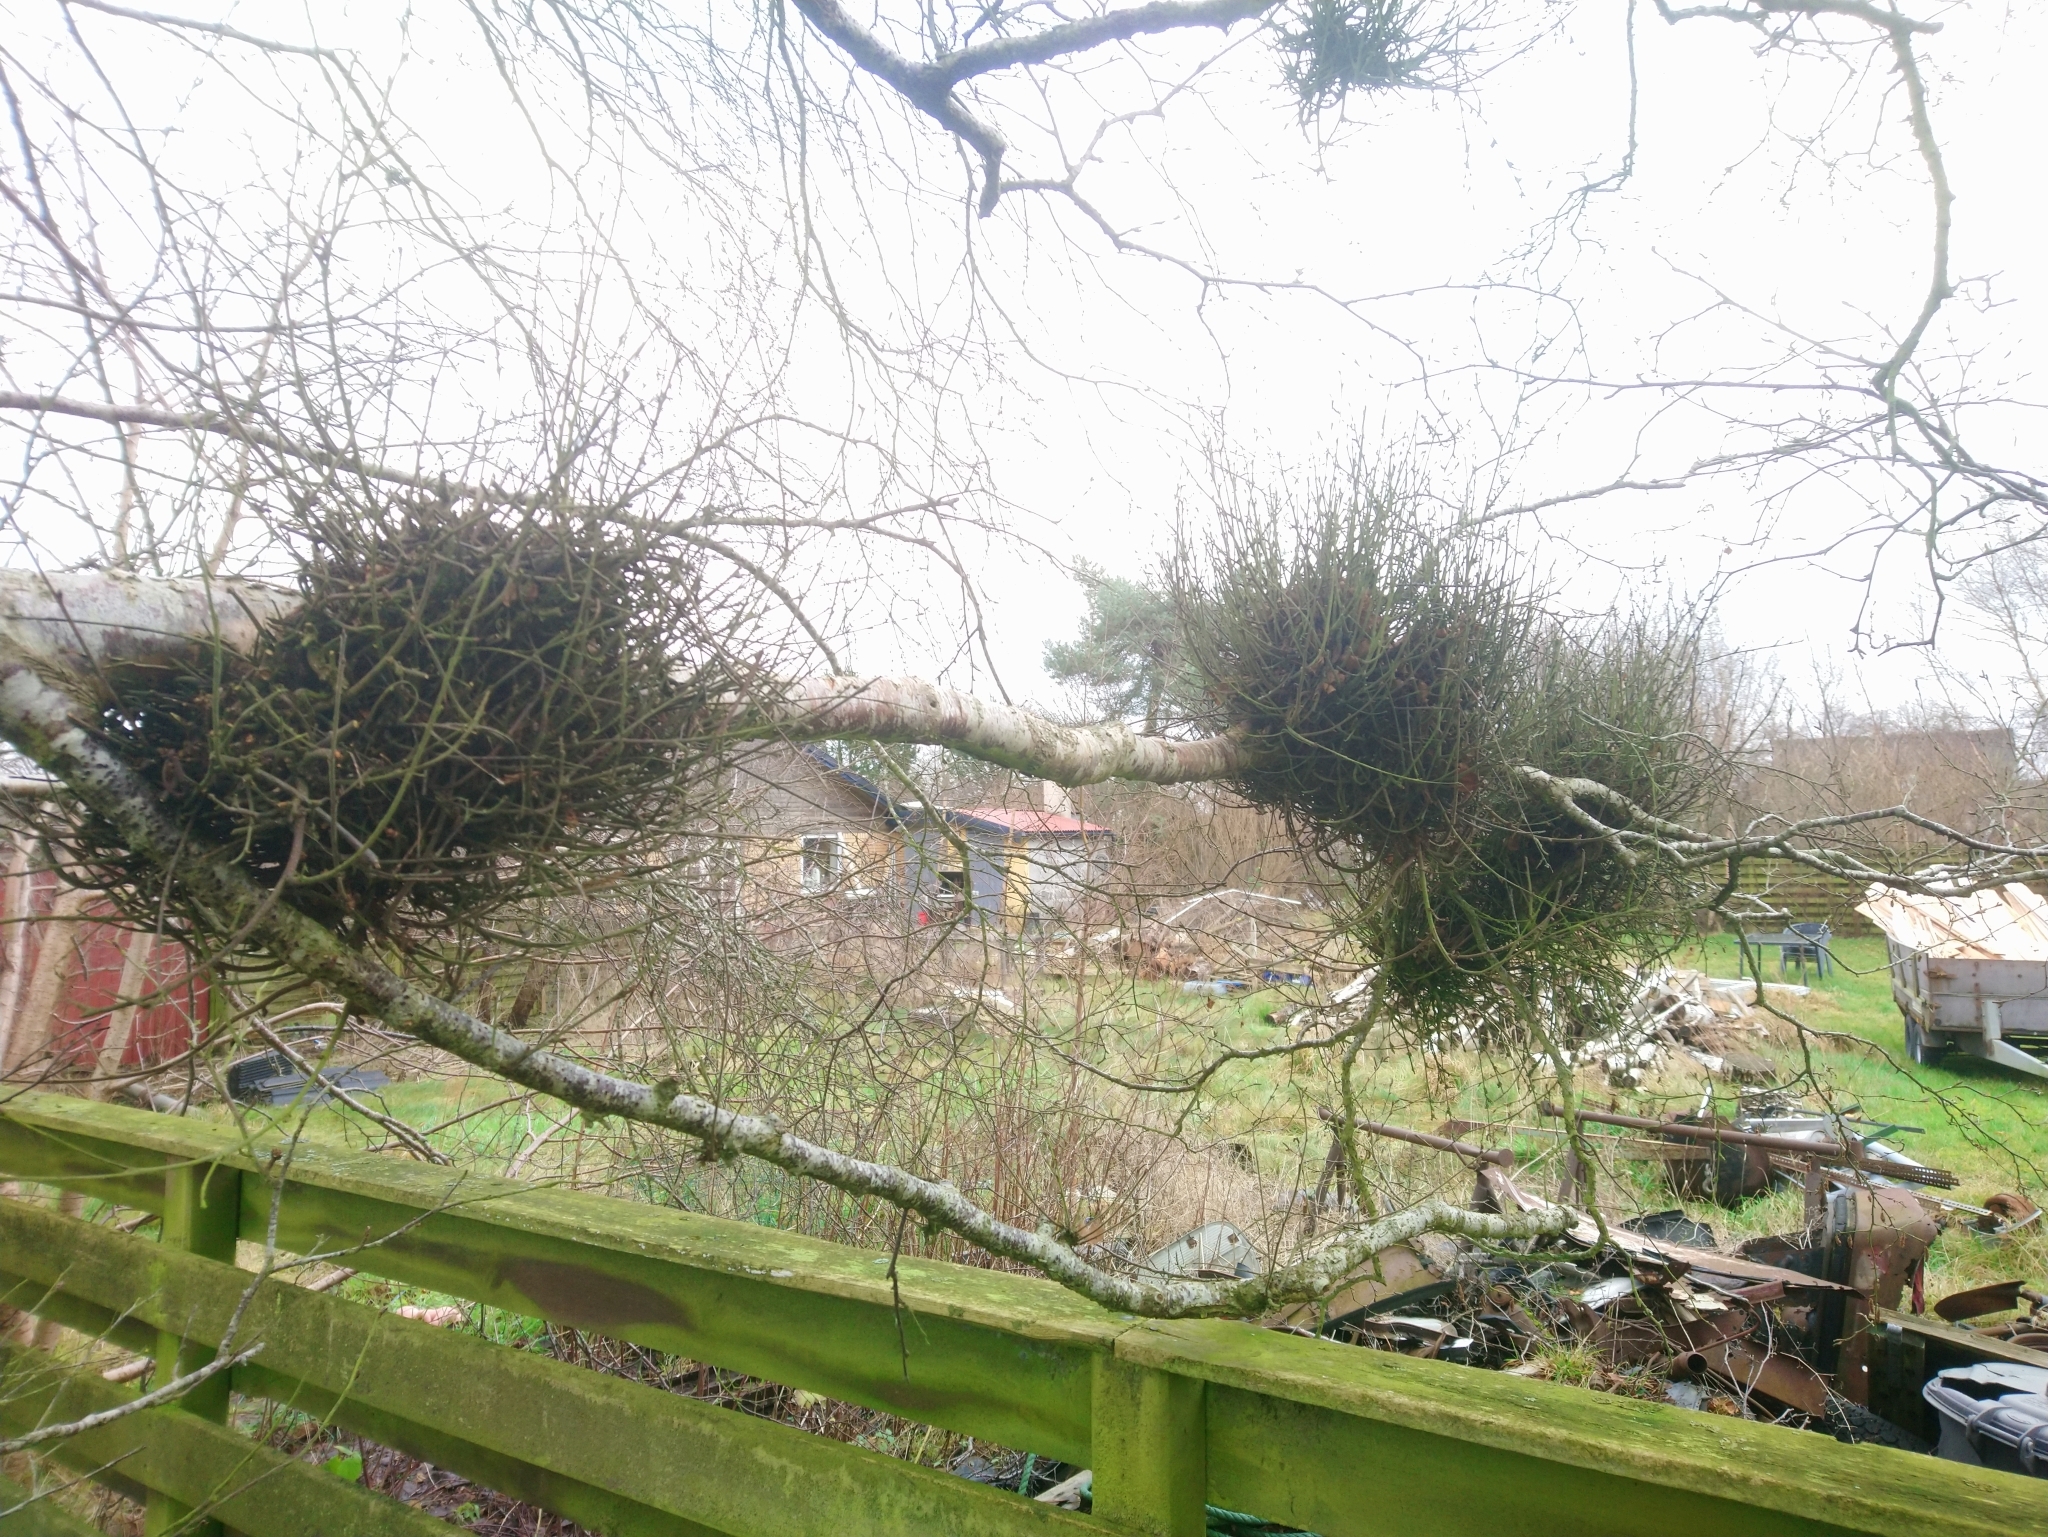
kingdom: Fungi
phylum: Ascomycota
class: Taphrinomycetes
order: Taphrinales
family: Taphrinaceae
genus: Taphrina
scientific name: Taphrina betulina
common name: Birch besom
